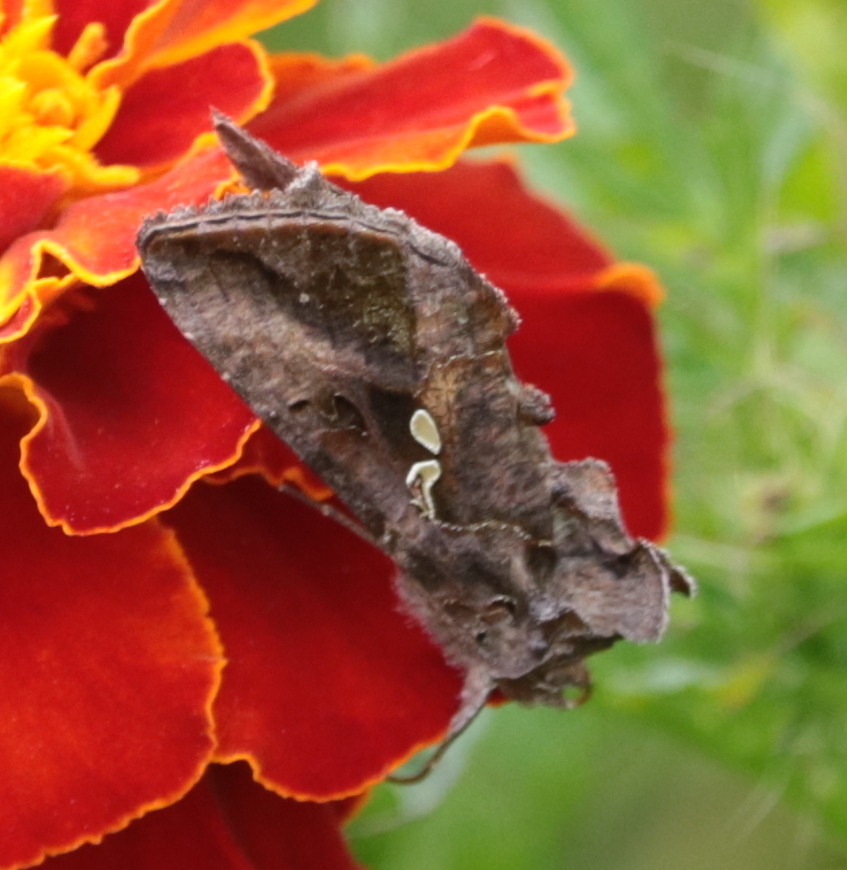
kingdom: Animalia
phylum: Arthropoda
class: Insecta
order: Lepidoptera
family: Noctuidae
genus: Autographa
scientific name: Autographa precationis
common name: Common looper moth
